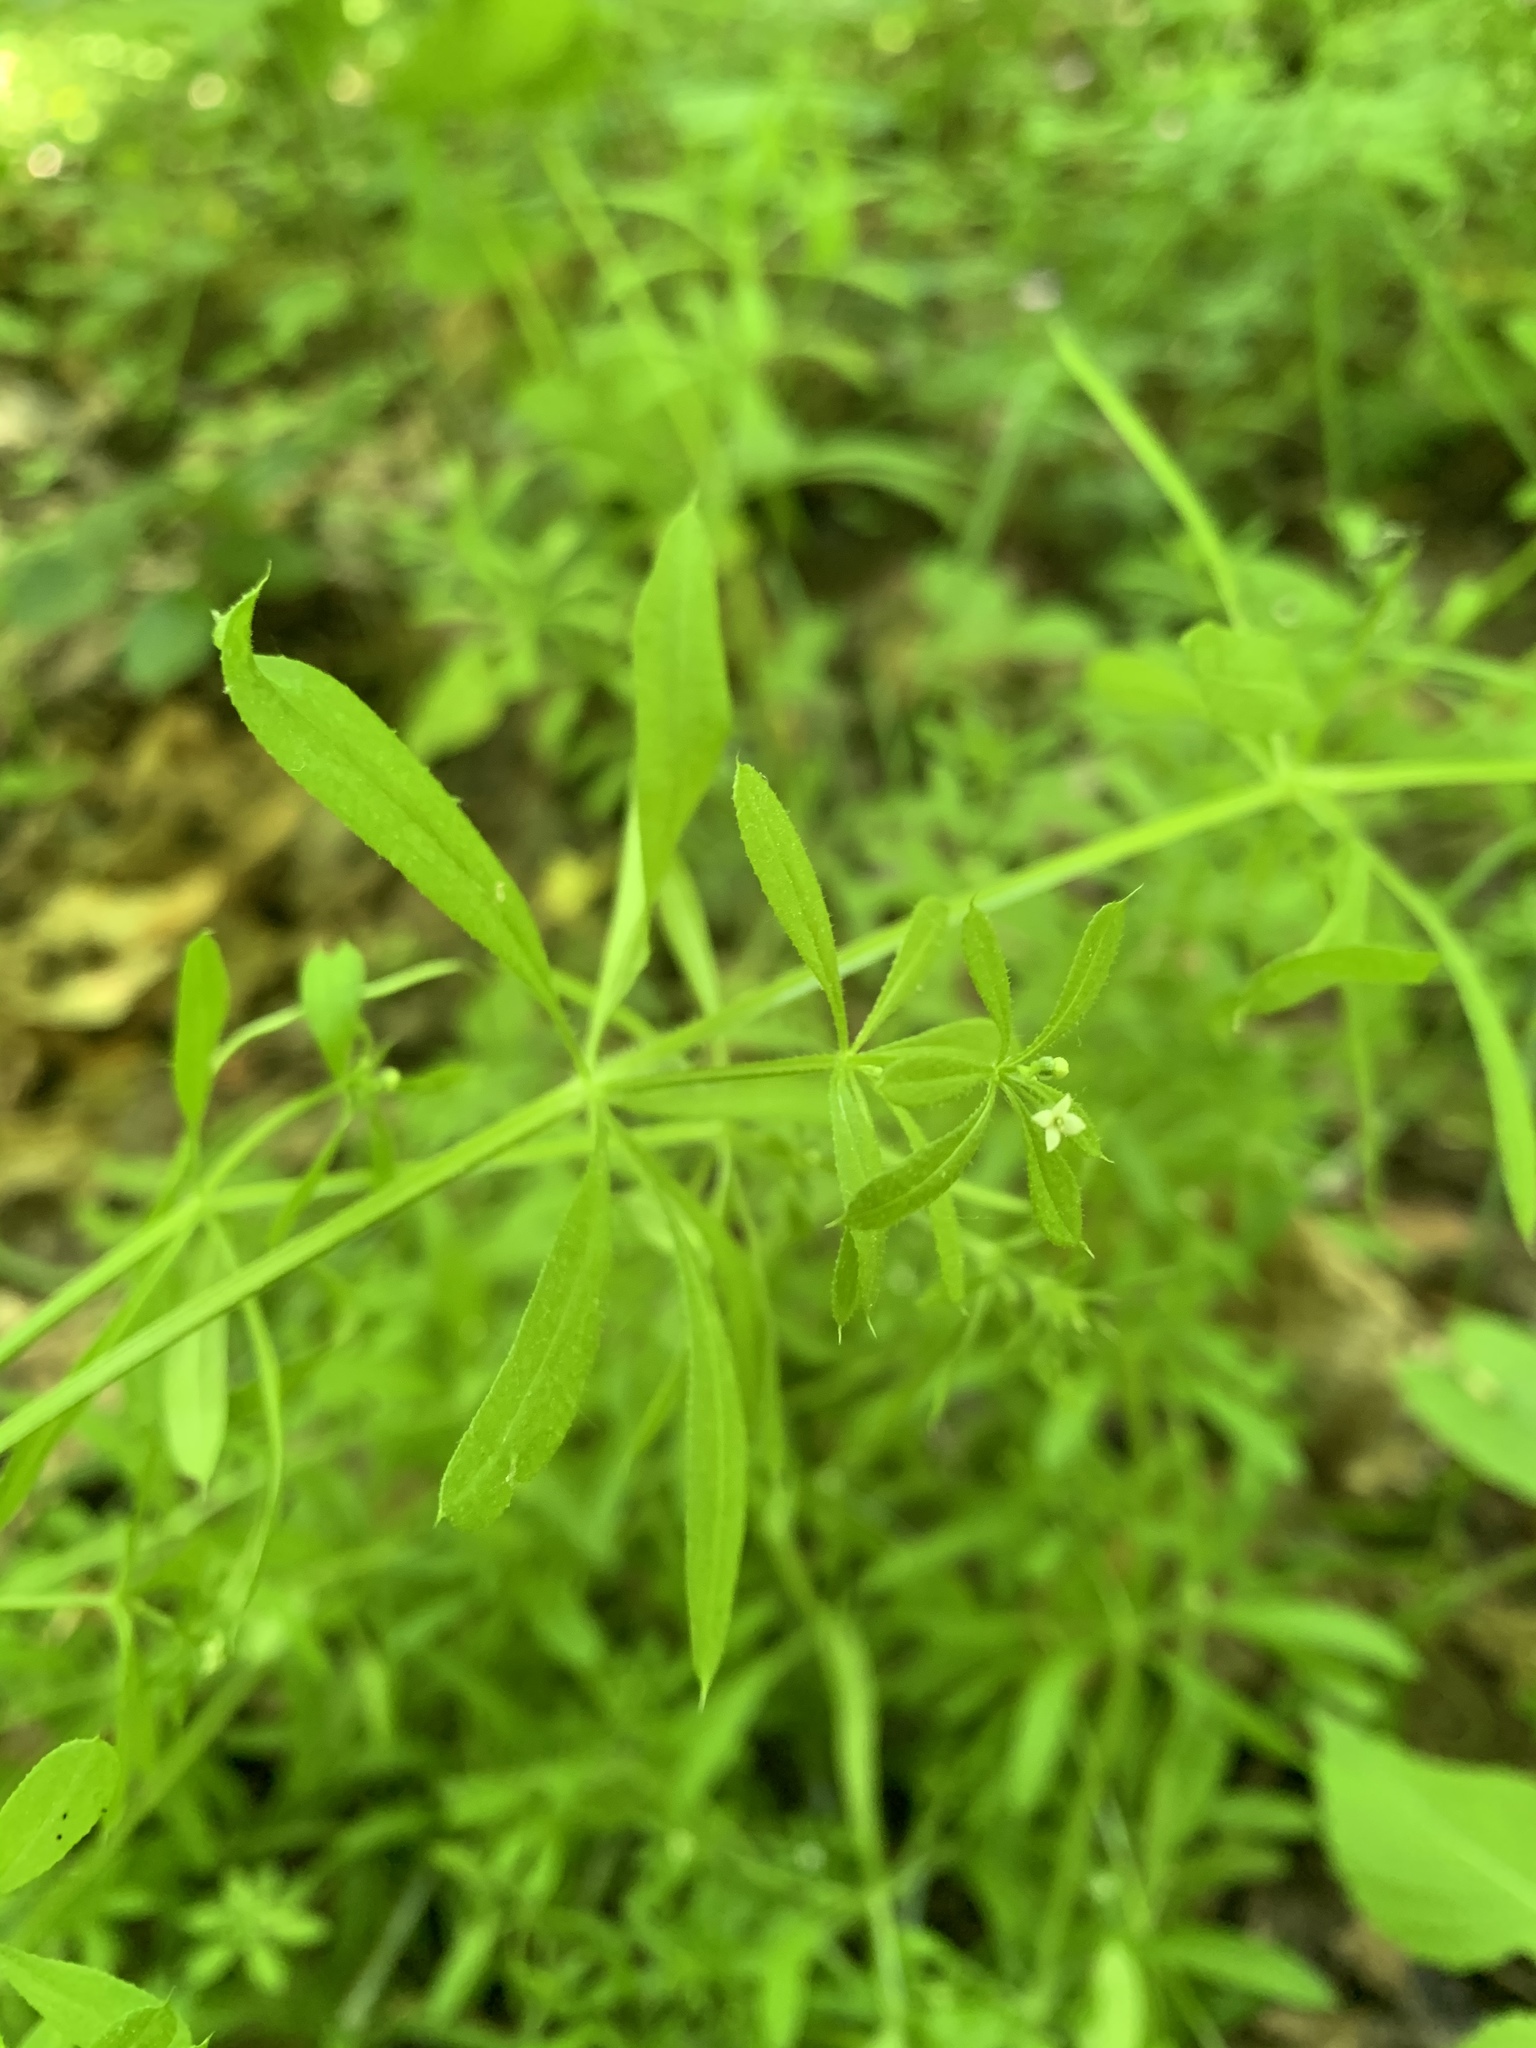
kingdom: Plantae
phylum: Tracheophyta
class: Magnoliopsida
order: Gentianales
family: Rubiaceae
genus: Galium
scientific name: Galium aparine
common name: Cleavers
